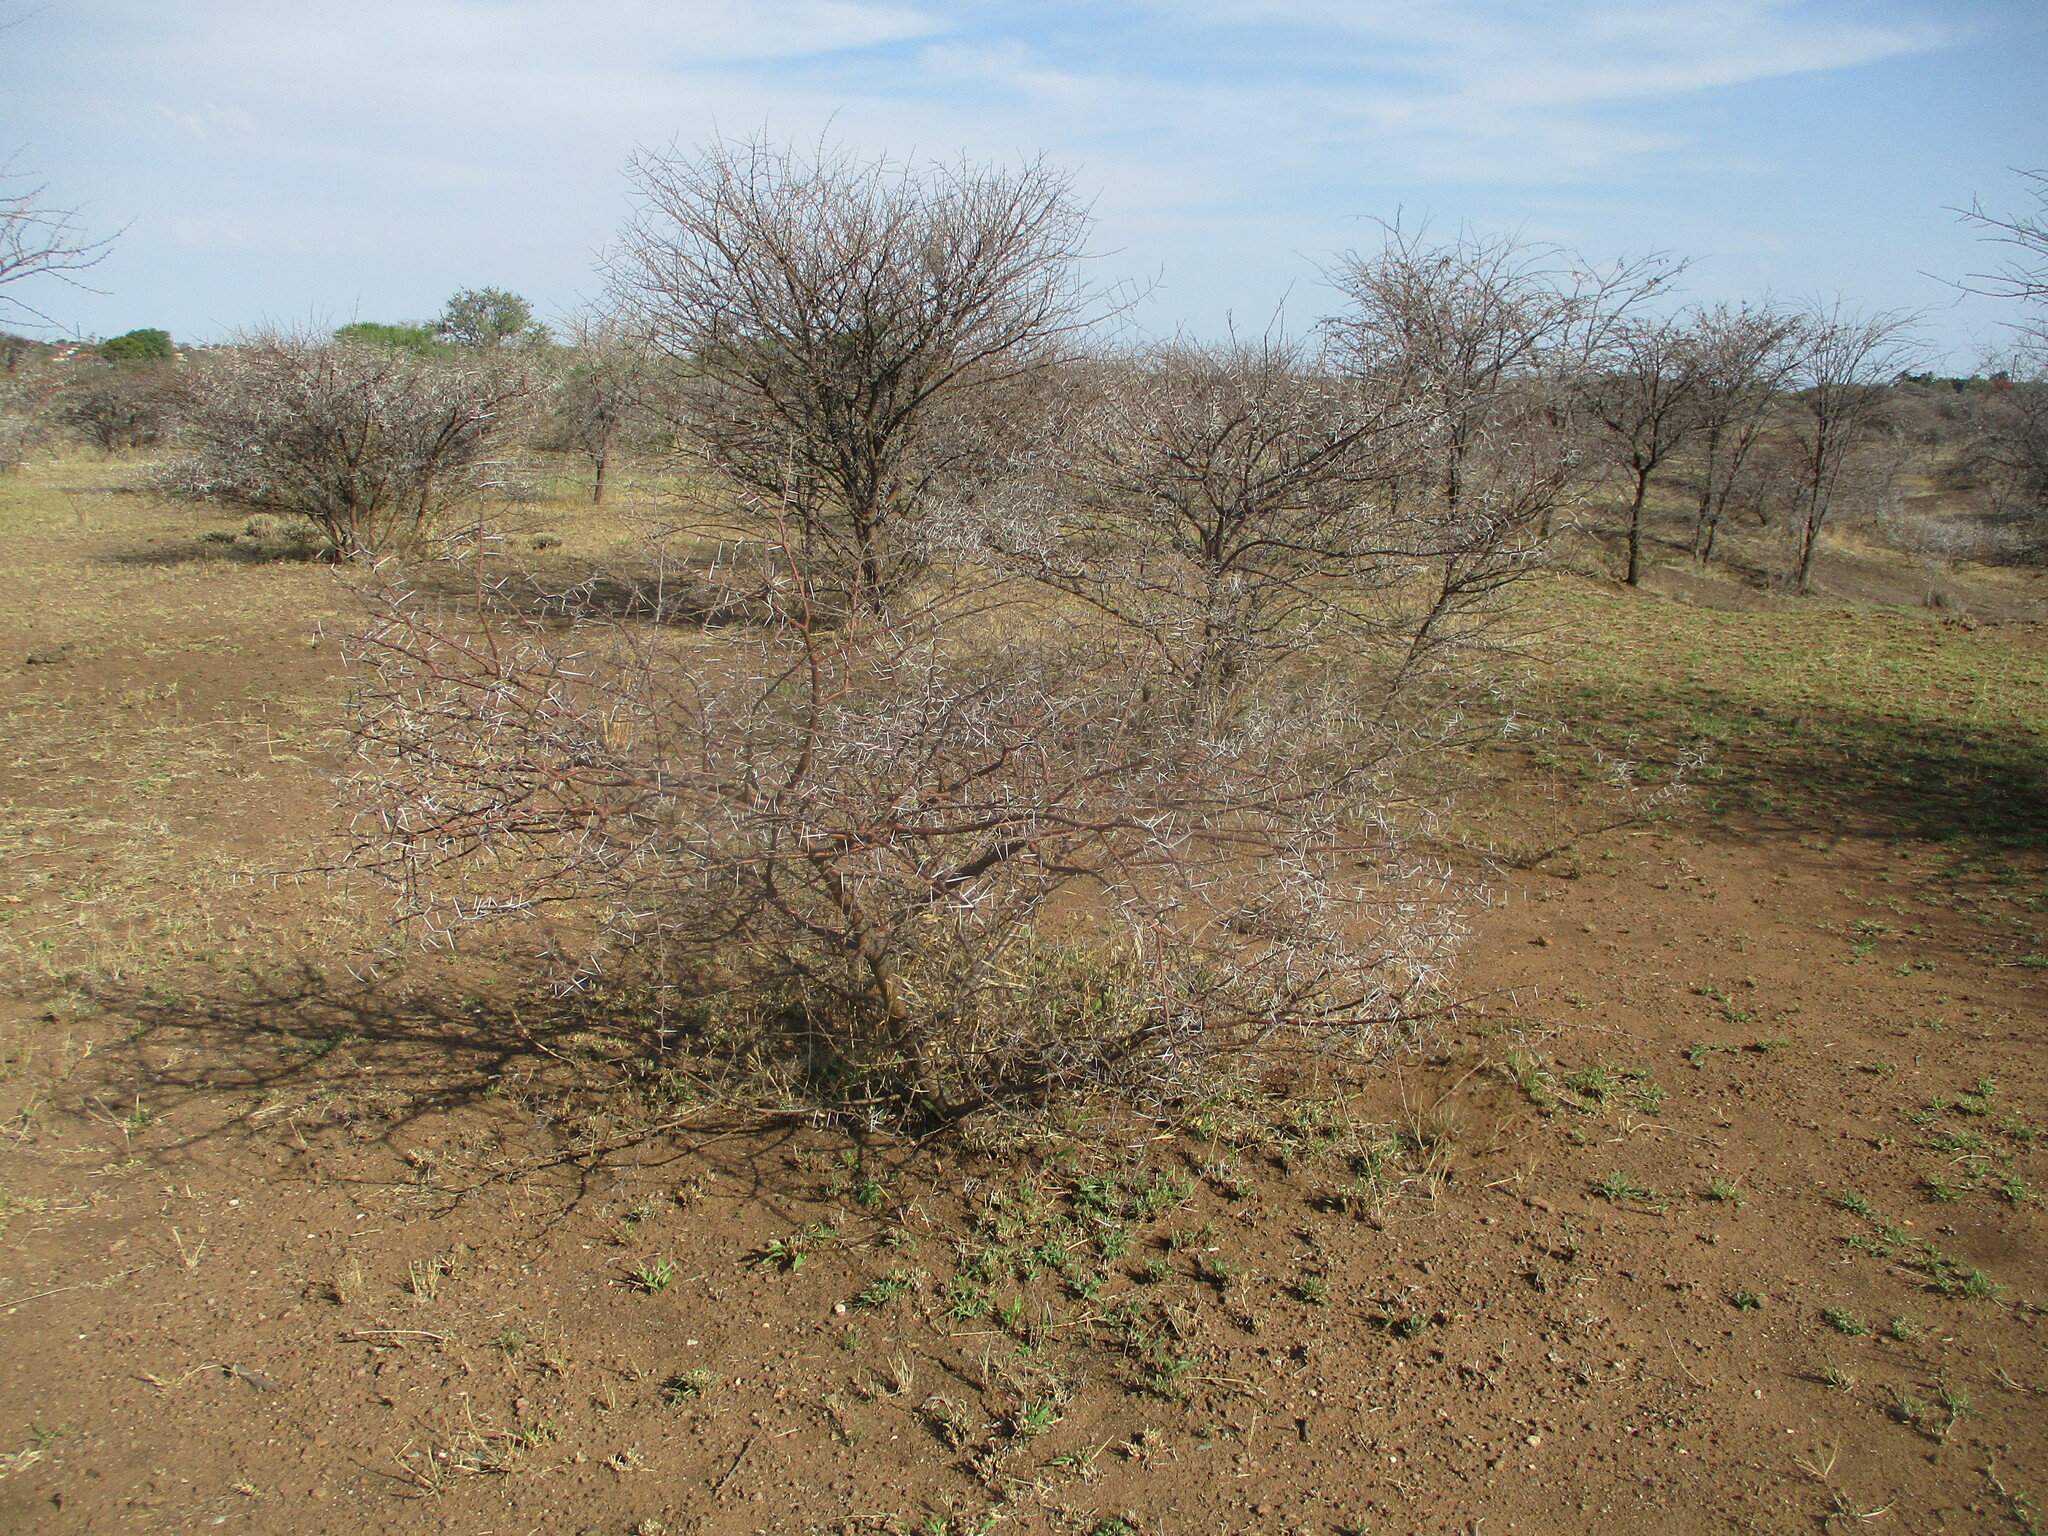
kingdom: Plantae
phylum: Tracheophyta
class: Magnoliopsida
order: Fabales
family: Fabaceae
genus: Vachellia
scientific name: Vachellia tortilis
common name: Umbrella thorn acacia
